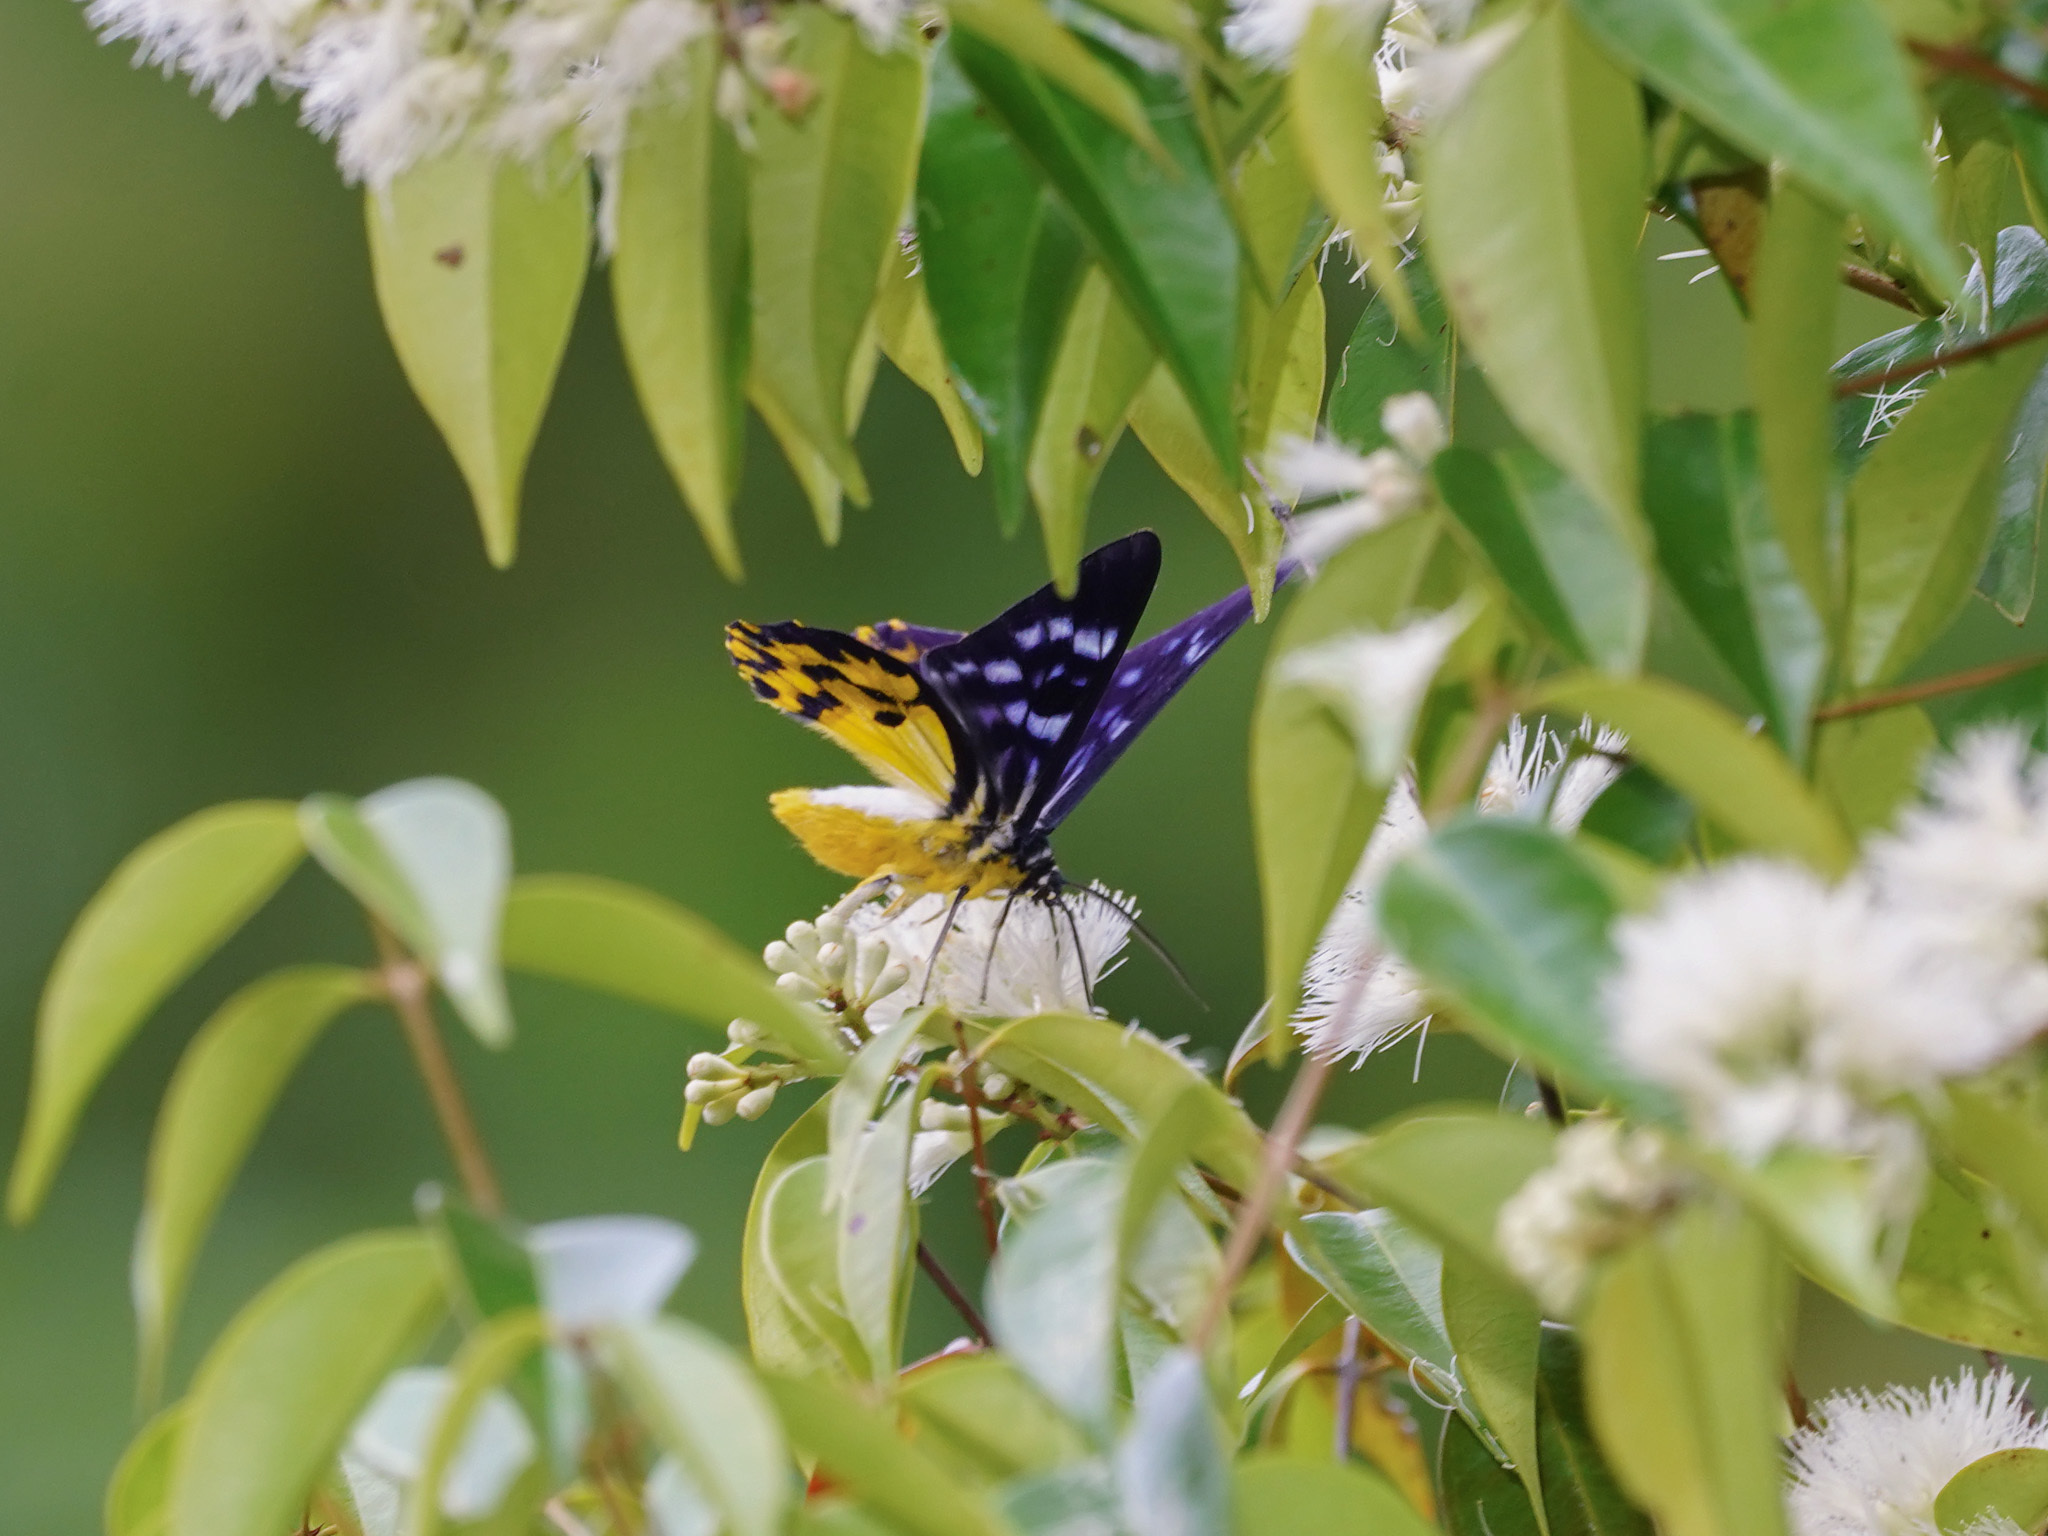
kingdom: Animalia
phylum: Arthropoda
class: Insecta
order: Lepidoptera
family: Geometridae
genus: Dysphania
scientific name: Dysphania discalis
